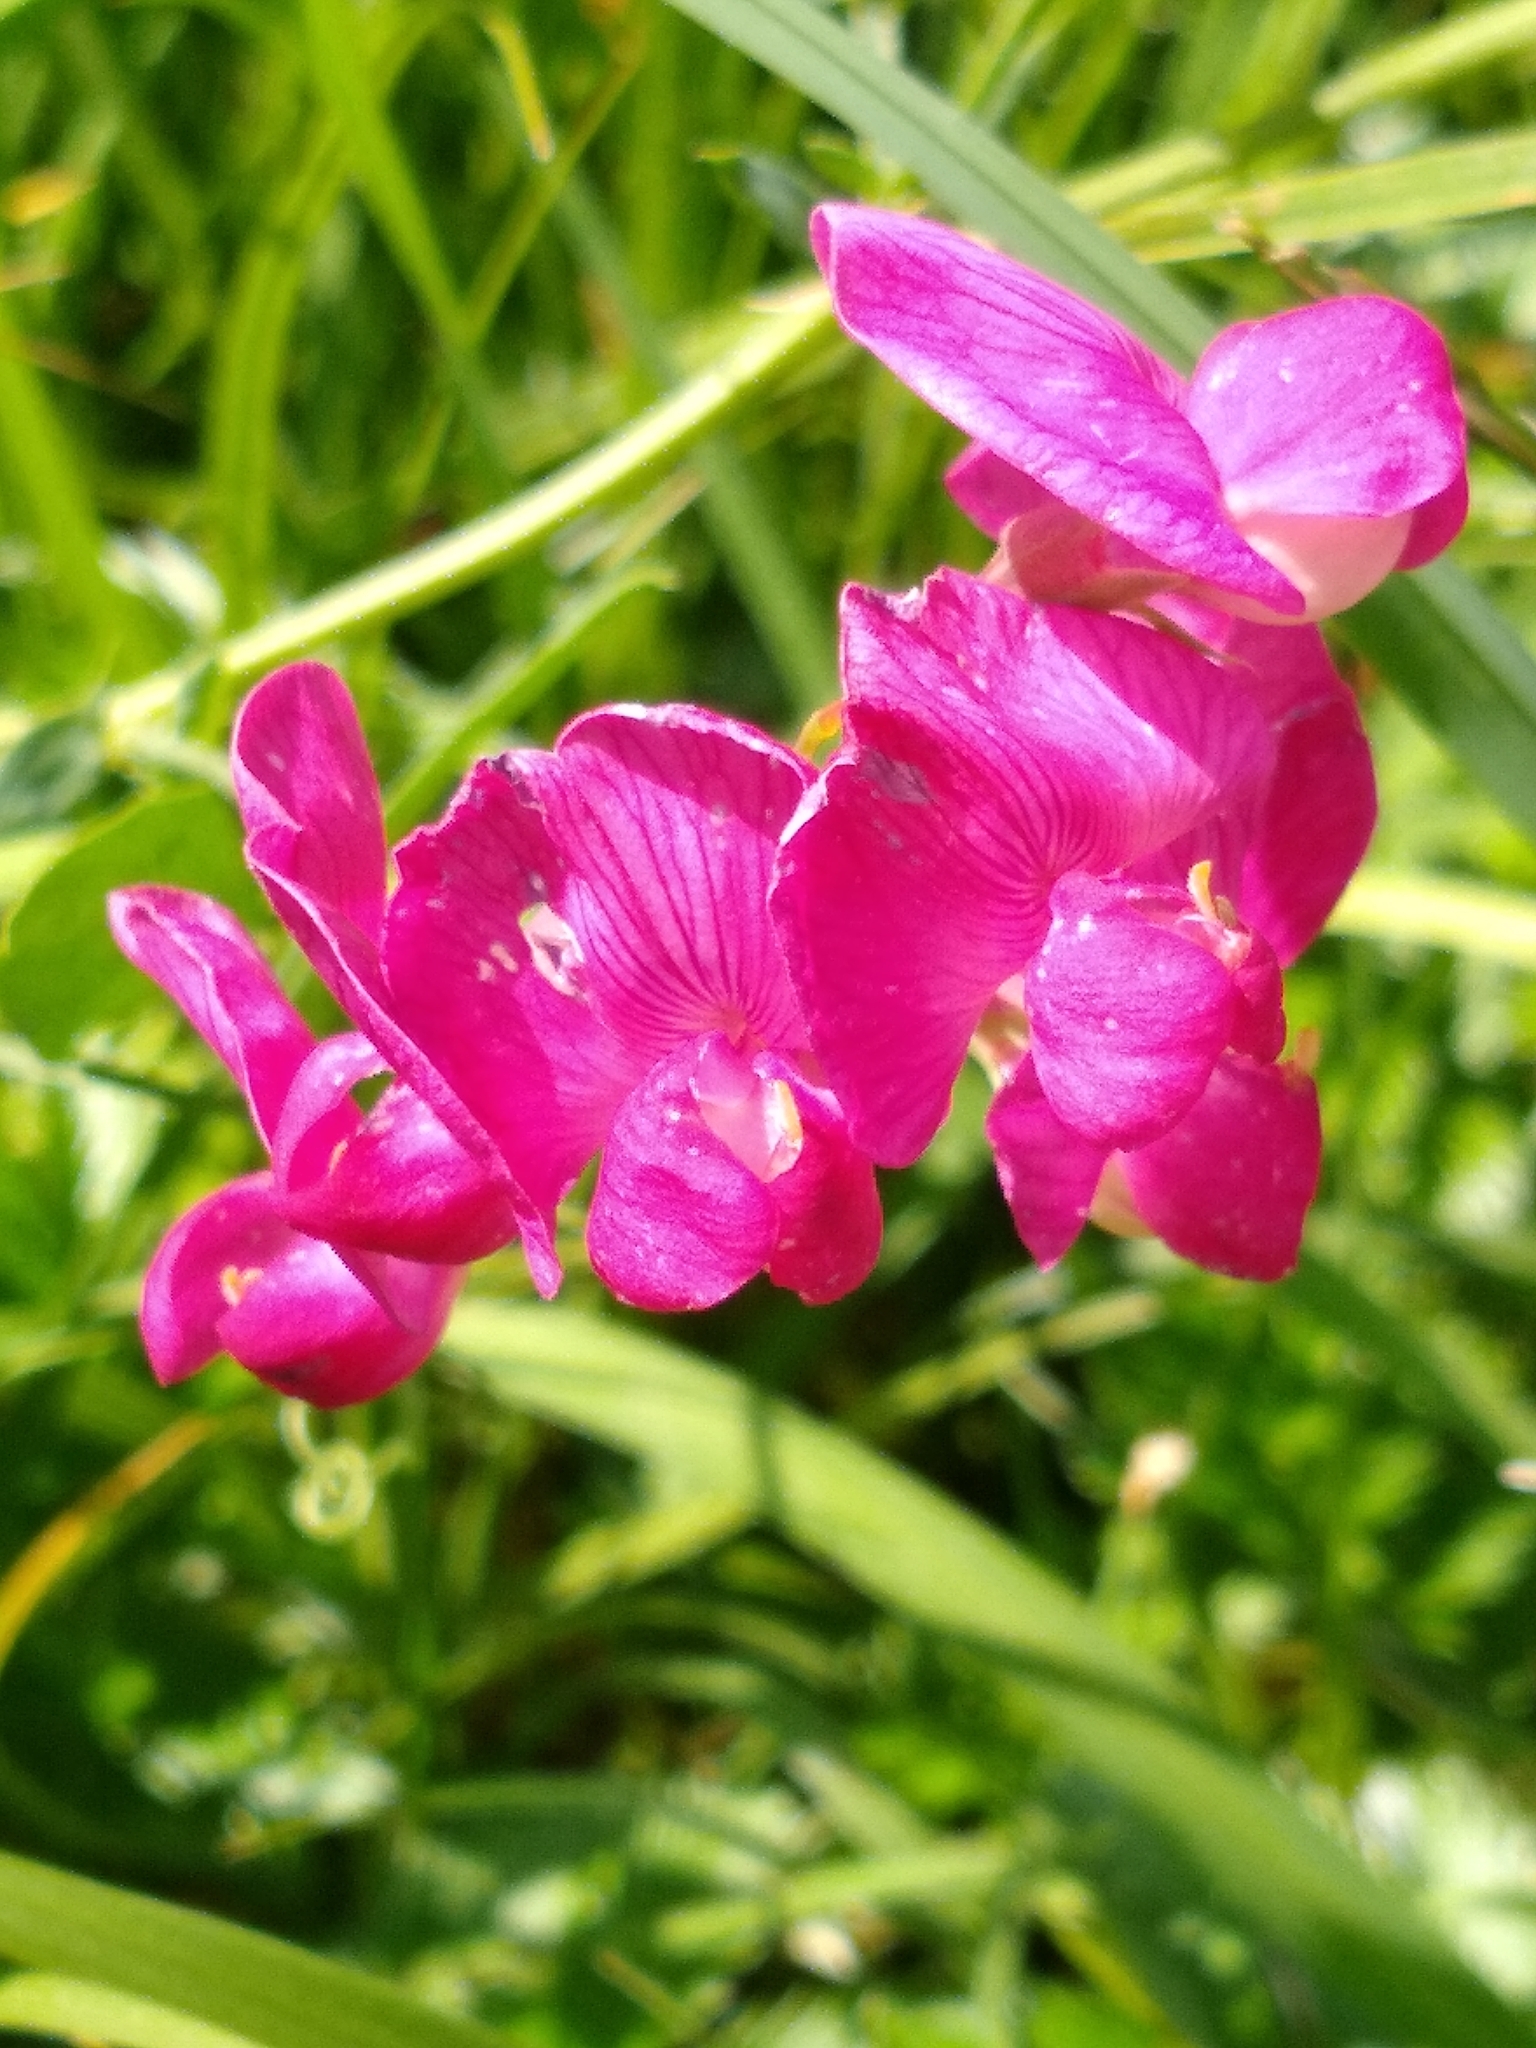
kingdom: Plantae
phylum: Tracheophyta
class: Magnoliopsida
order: Fabales
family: Fabaceae
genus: Lathyrus
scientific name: Lathyrus tuberosus
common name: Tuberous pea
